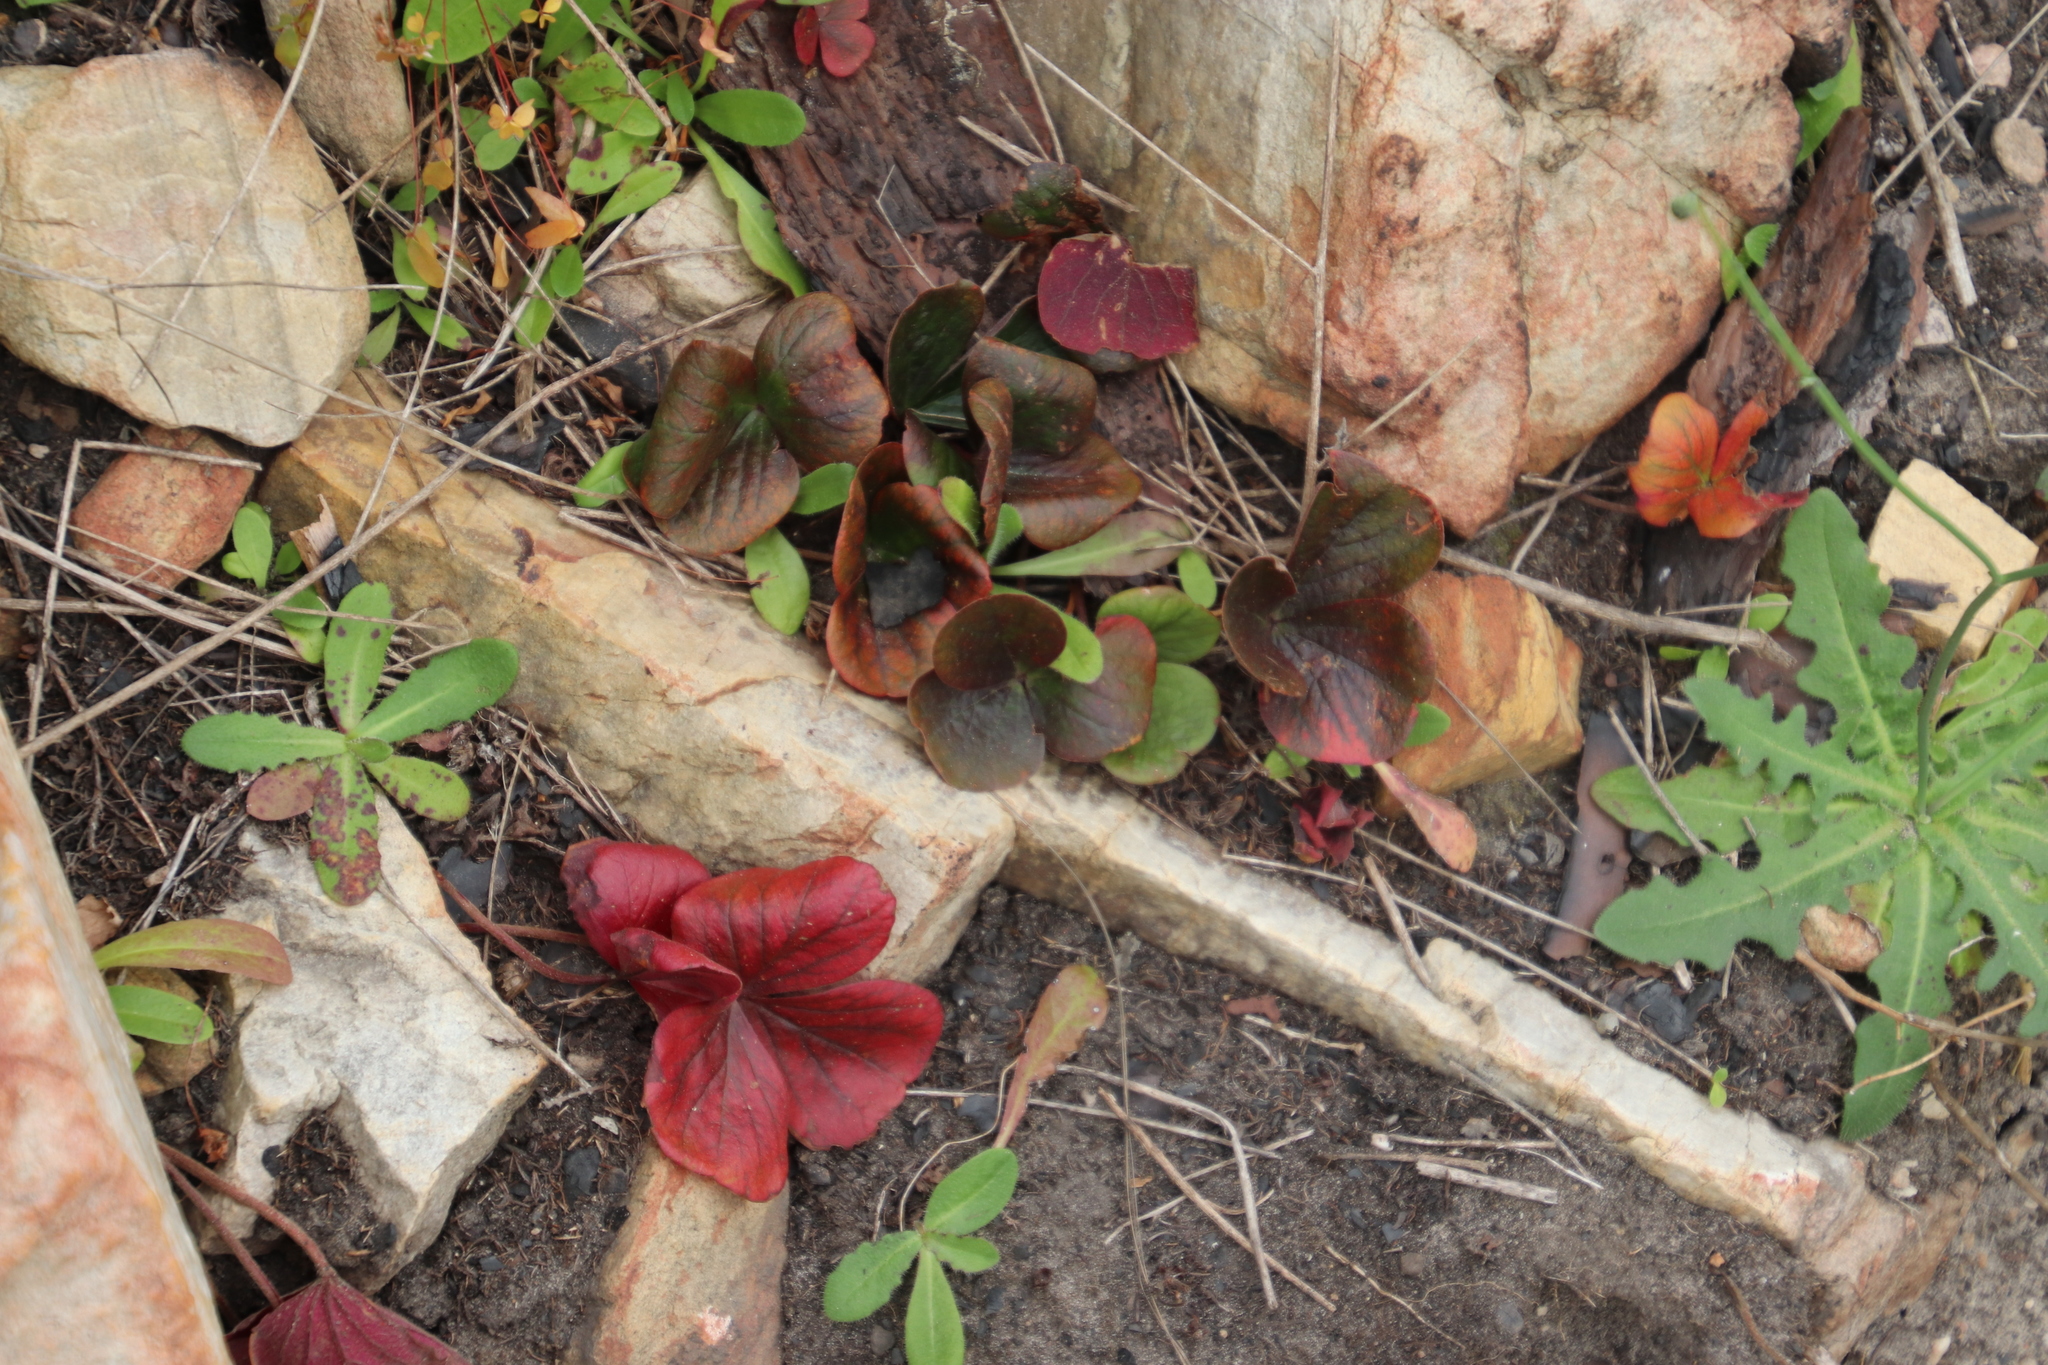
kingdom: Plantae
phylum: Tracheophyta
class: Magnoliopsida
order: Oxalidales
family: Oxalidaceae
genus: Oxalis
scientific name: Oxalis truncatula
